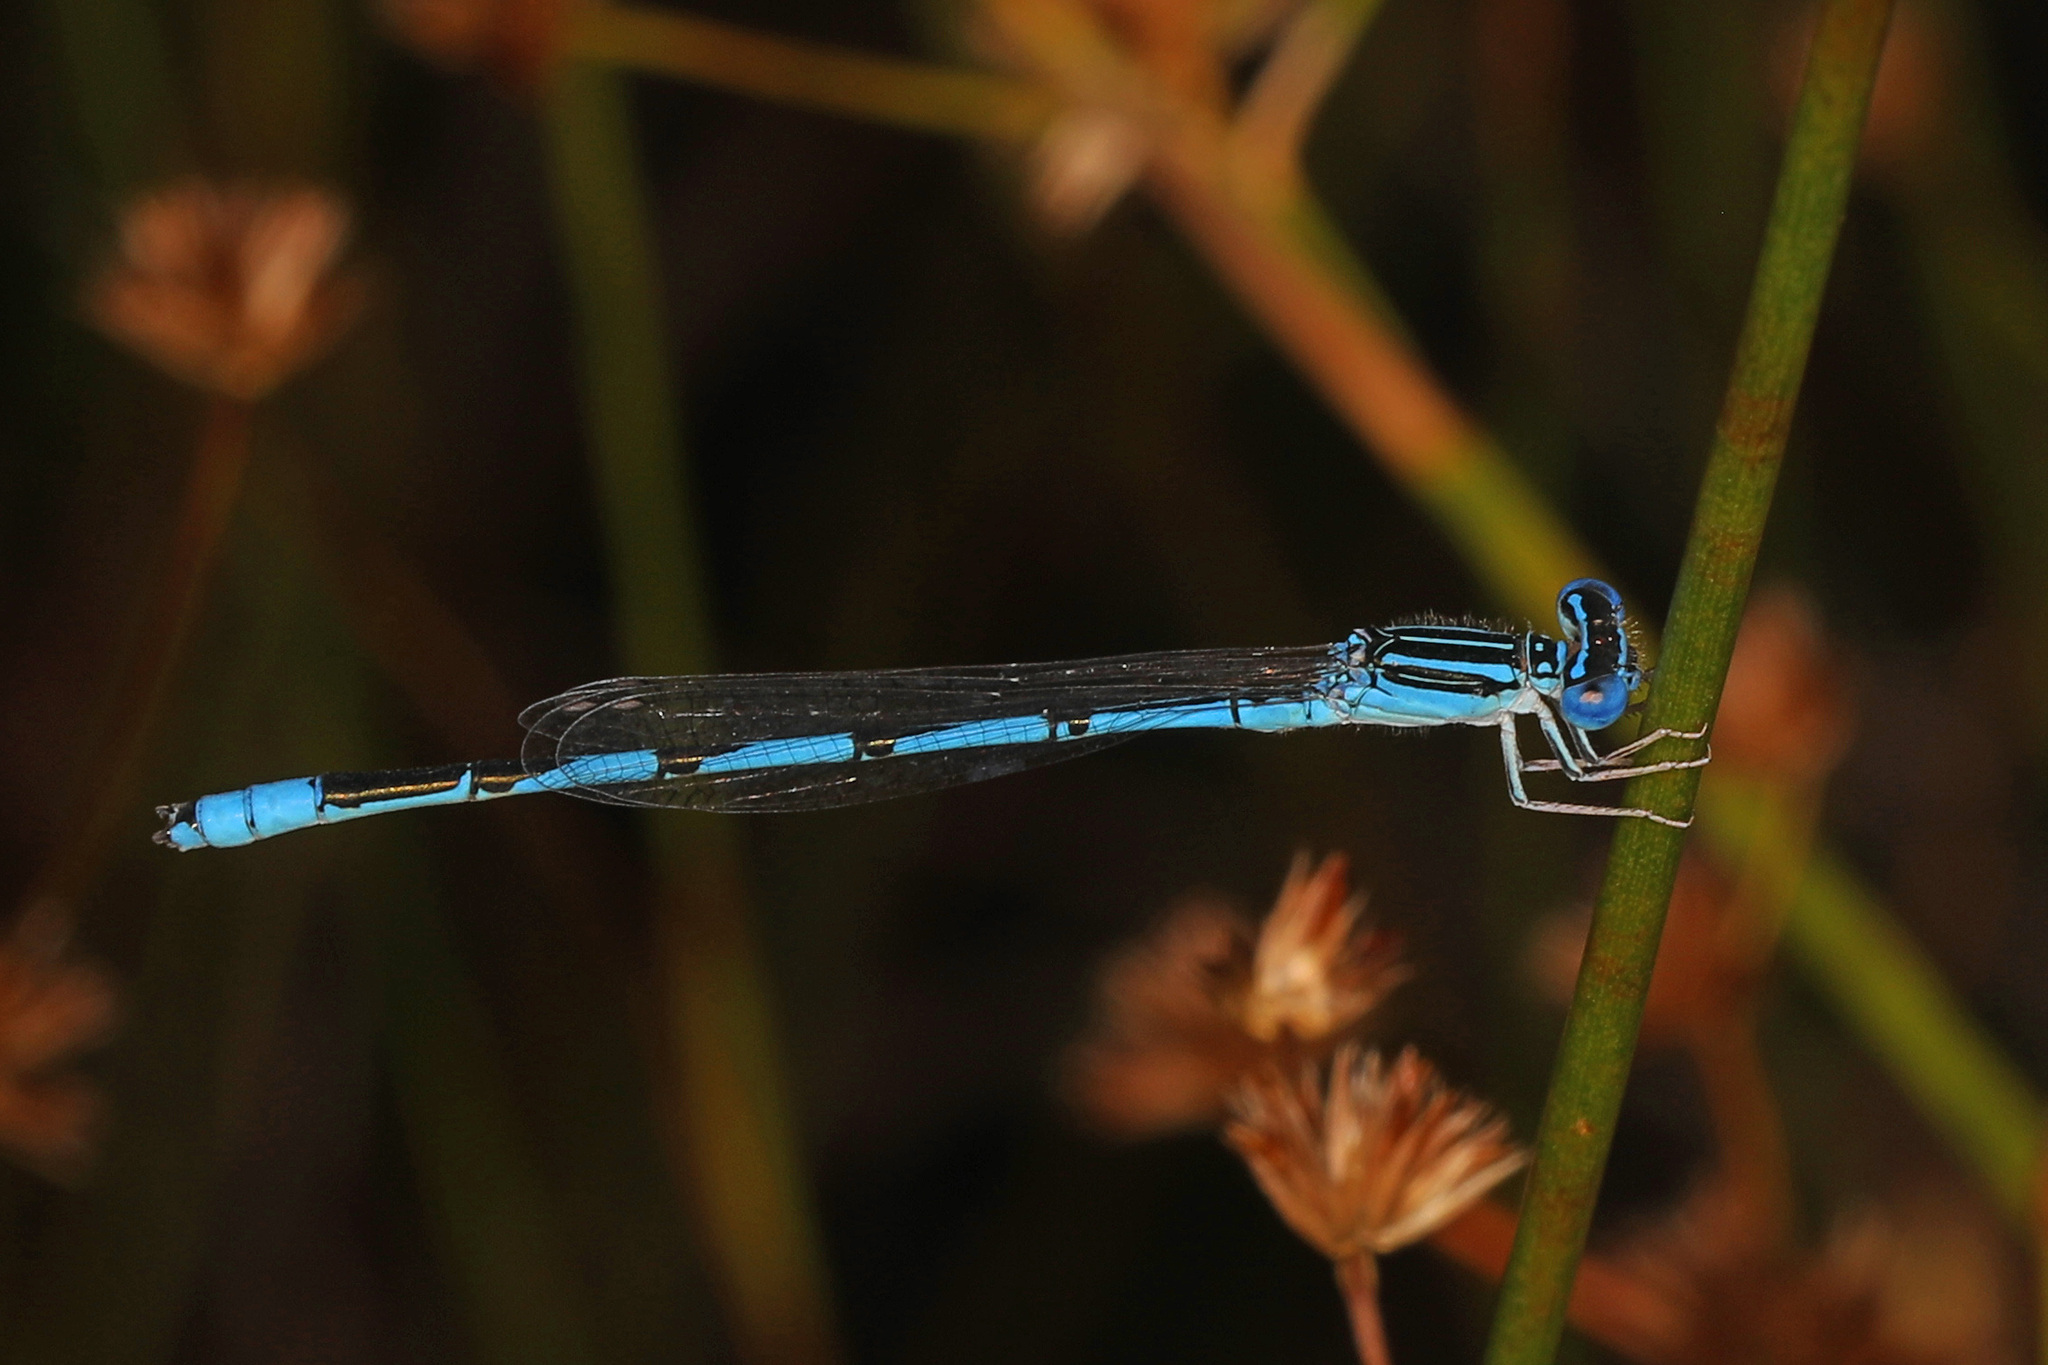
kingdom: Animalia
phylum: Arthropoda
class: Insecta
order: Odonata
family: Coenagrionidae
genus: Enallagma
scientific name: Enallagma basidens
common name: Double-striped bluet
